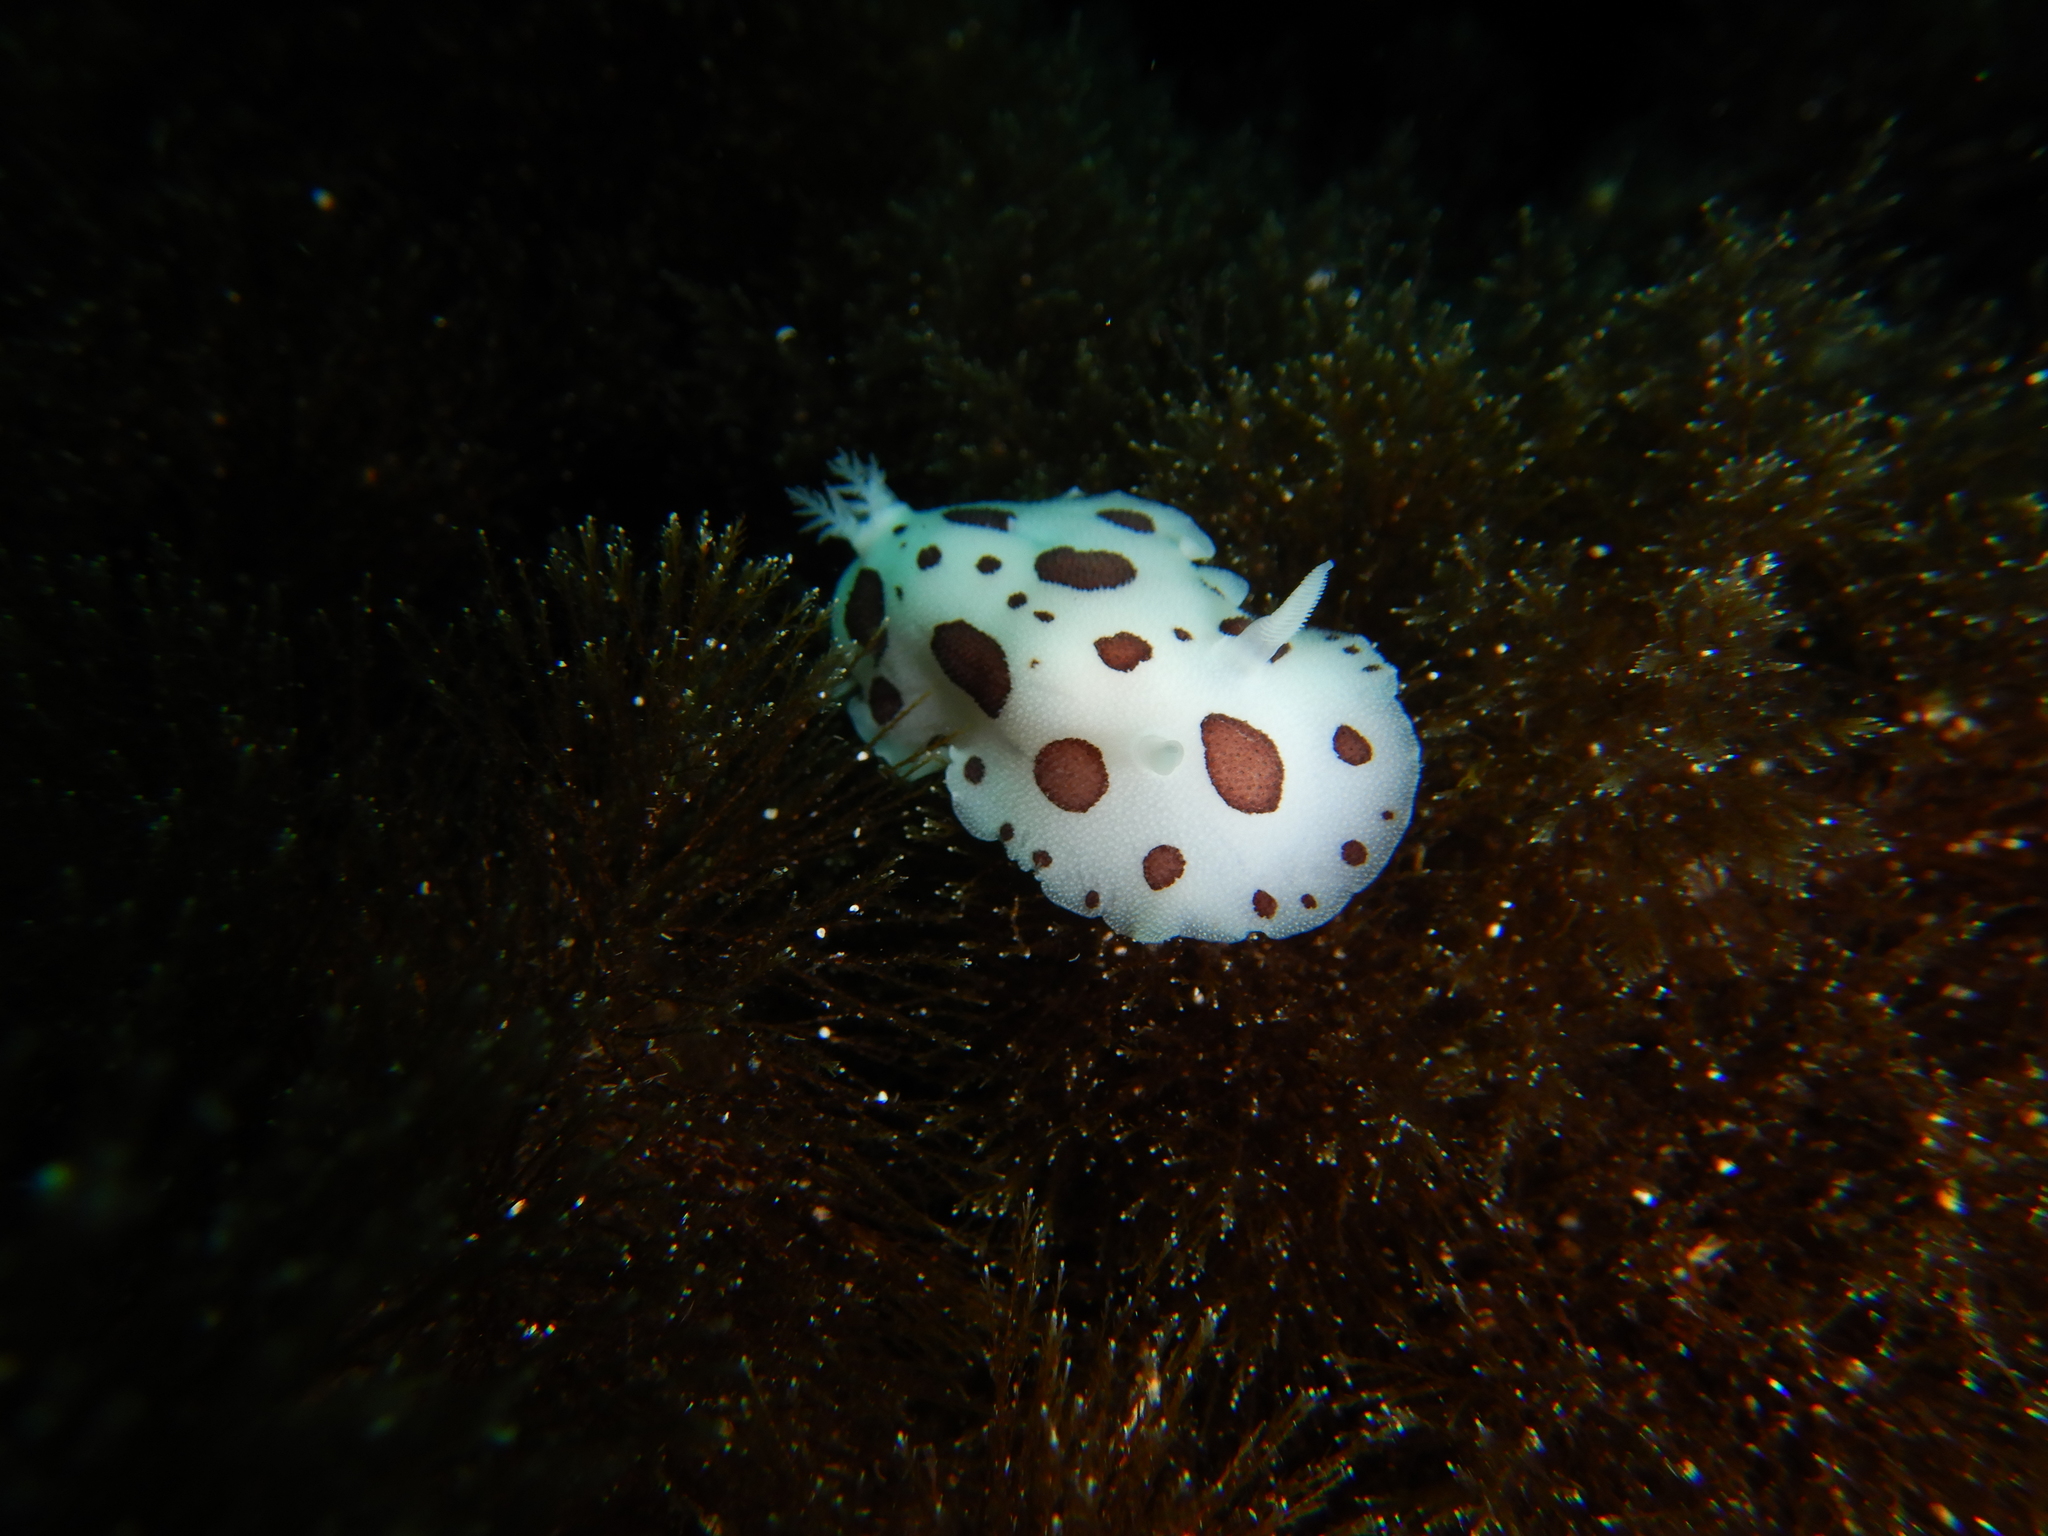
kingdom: Animalia
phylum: Mollusca
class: Gastropoda
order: Nudibranchia
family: Discodorididae
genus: Peltodoris
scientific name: Peltodoris atromaculata
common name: Swiss cow nudibranch
